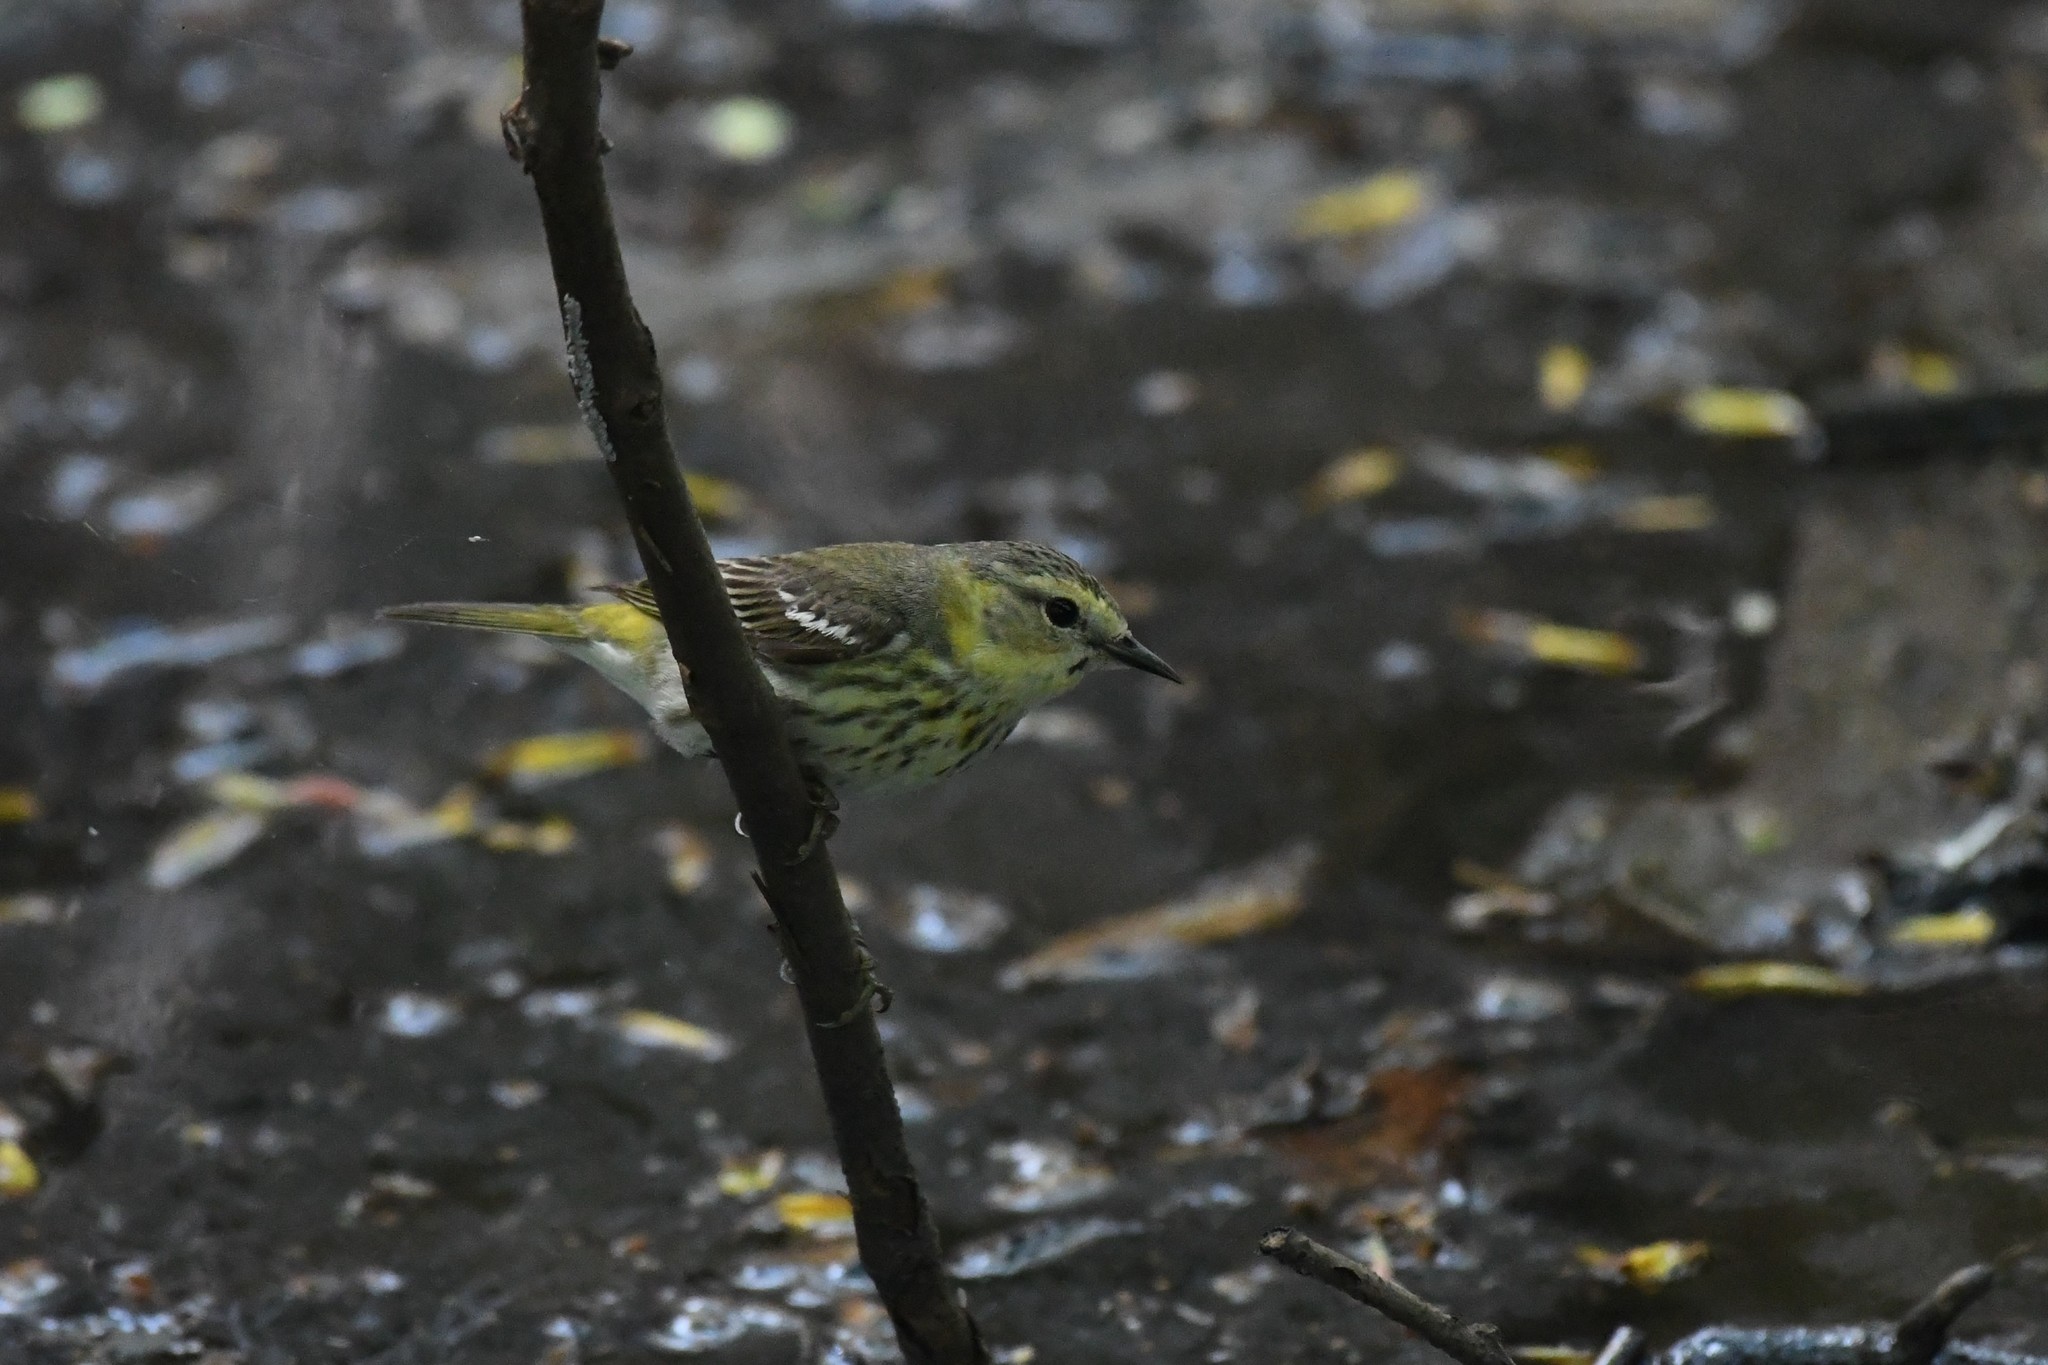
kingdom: Animalia
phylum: Chordata
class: Aves
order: Passeriformes
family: Parulidae
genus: Setophaga
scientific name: Setophaga tigrina
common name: Cape may warbler
